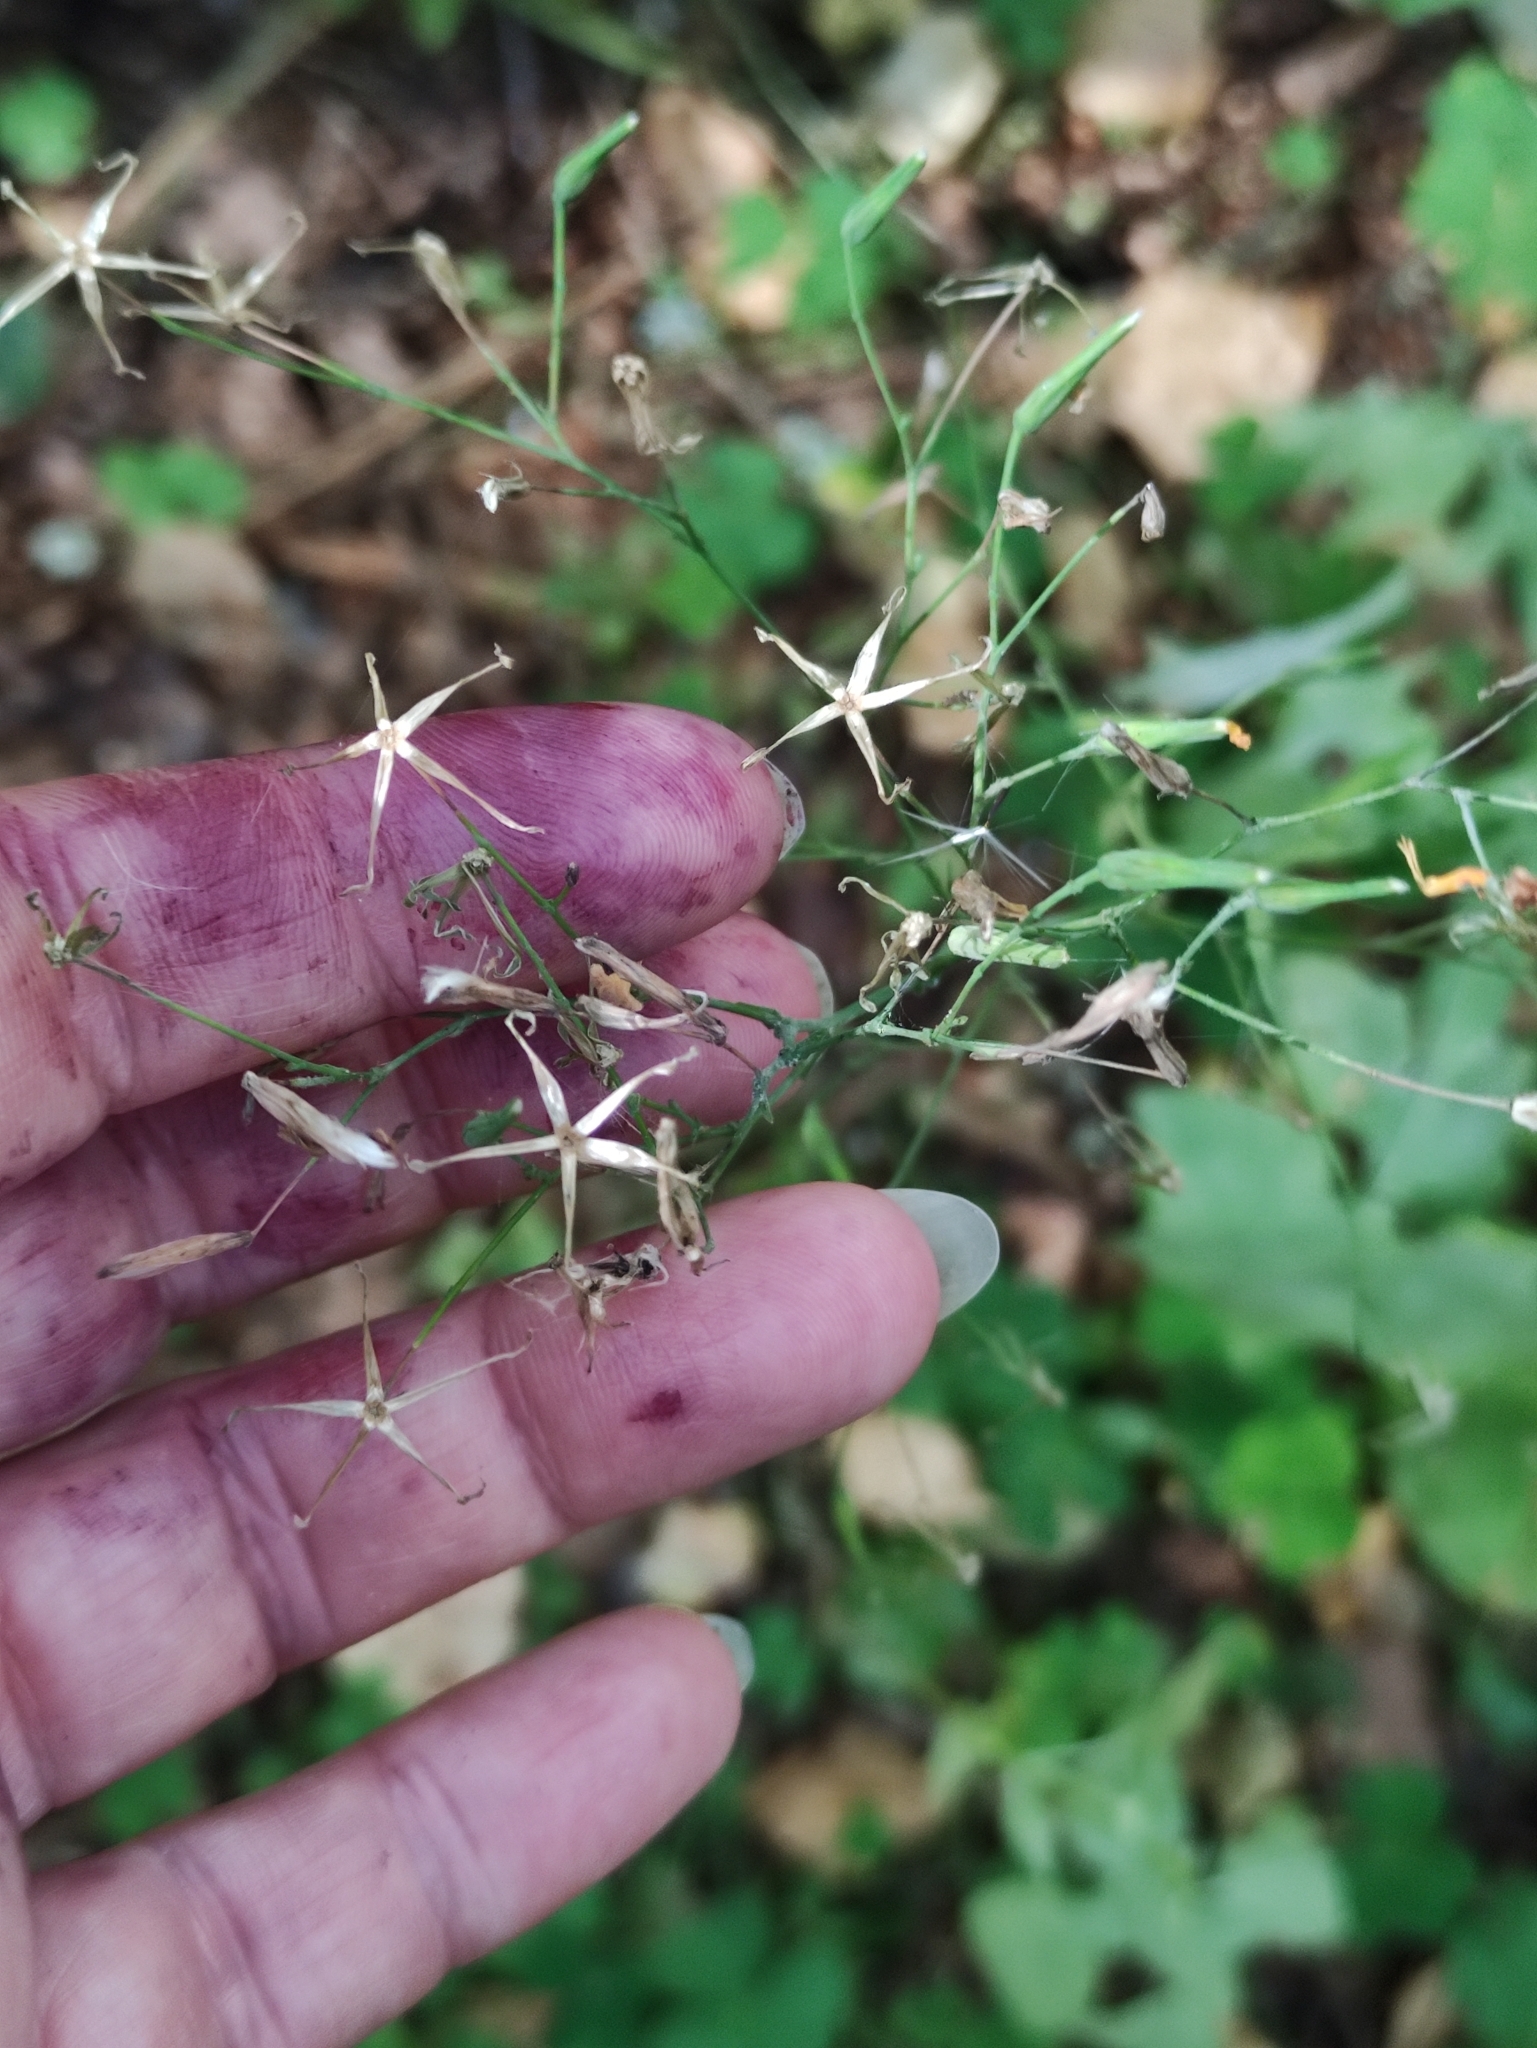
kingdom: Plantae
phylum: Tracheophyta
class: Magnoliopsida
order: Asterales
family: Asteraceae
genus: Mycelis
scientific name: Mycelis muralis
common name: Wall lettuce
